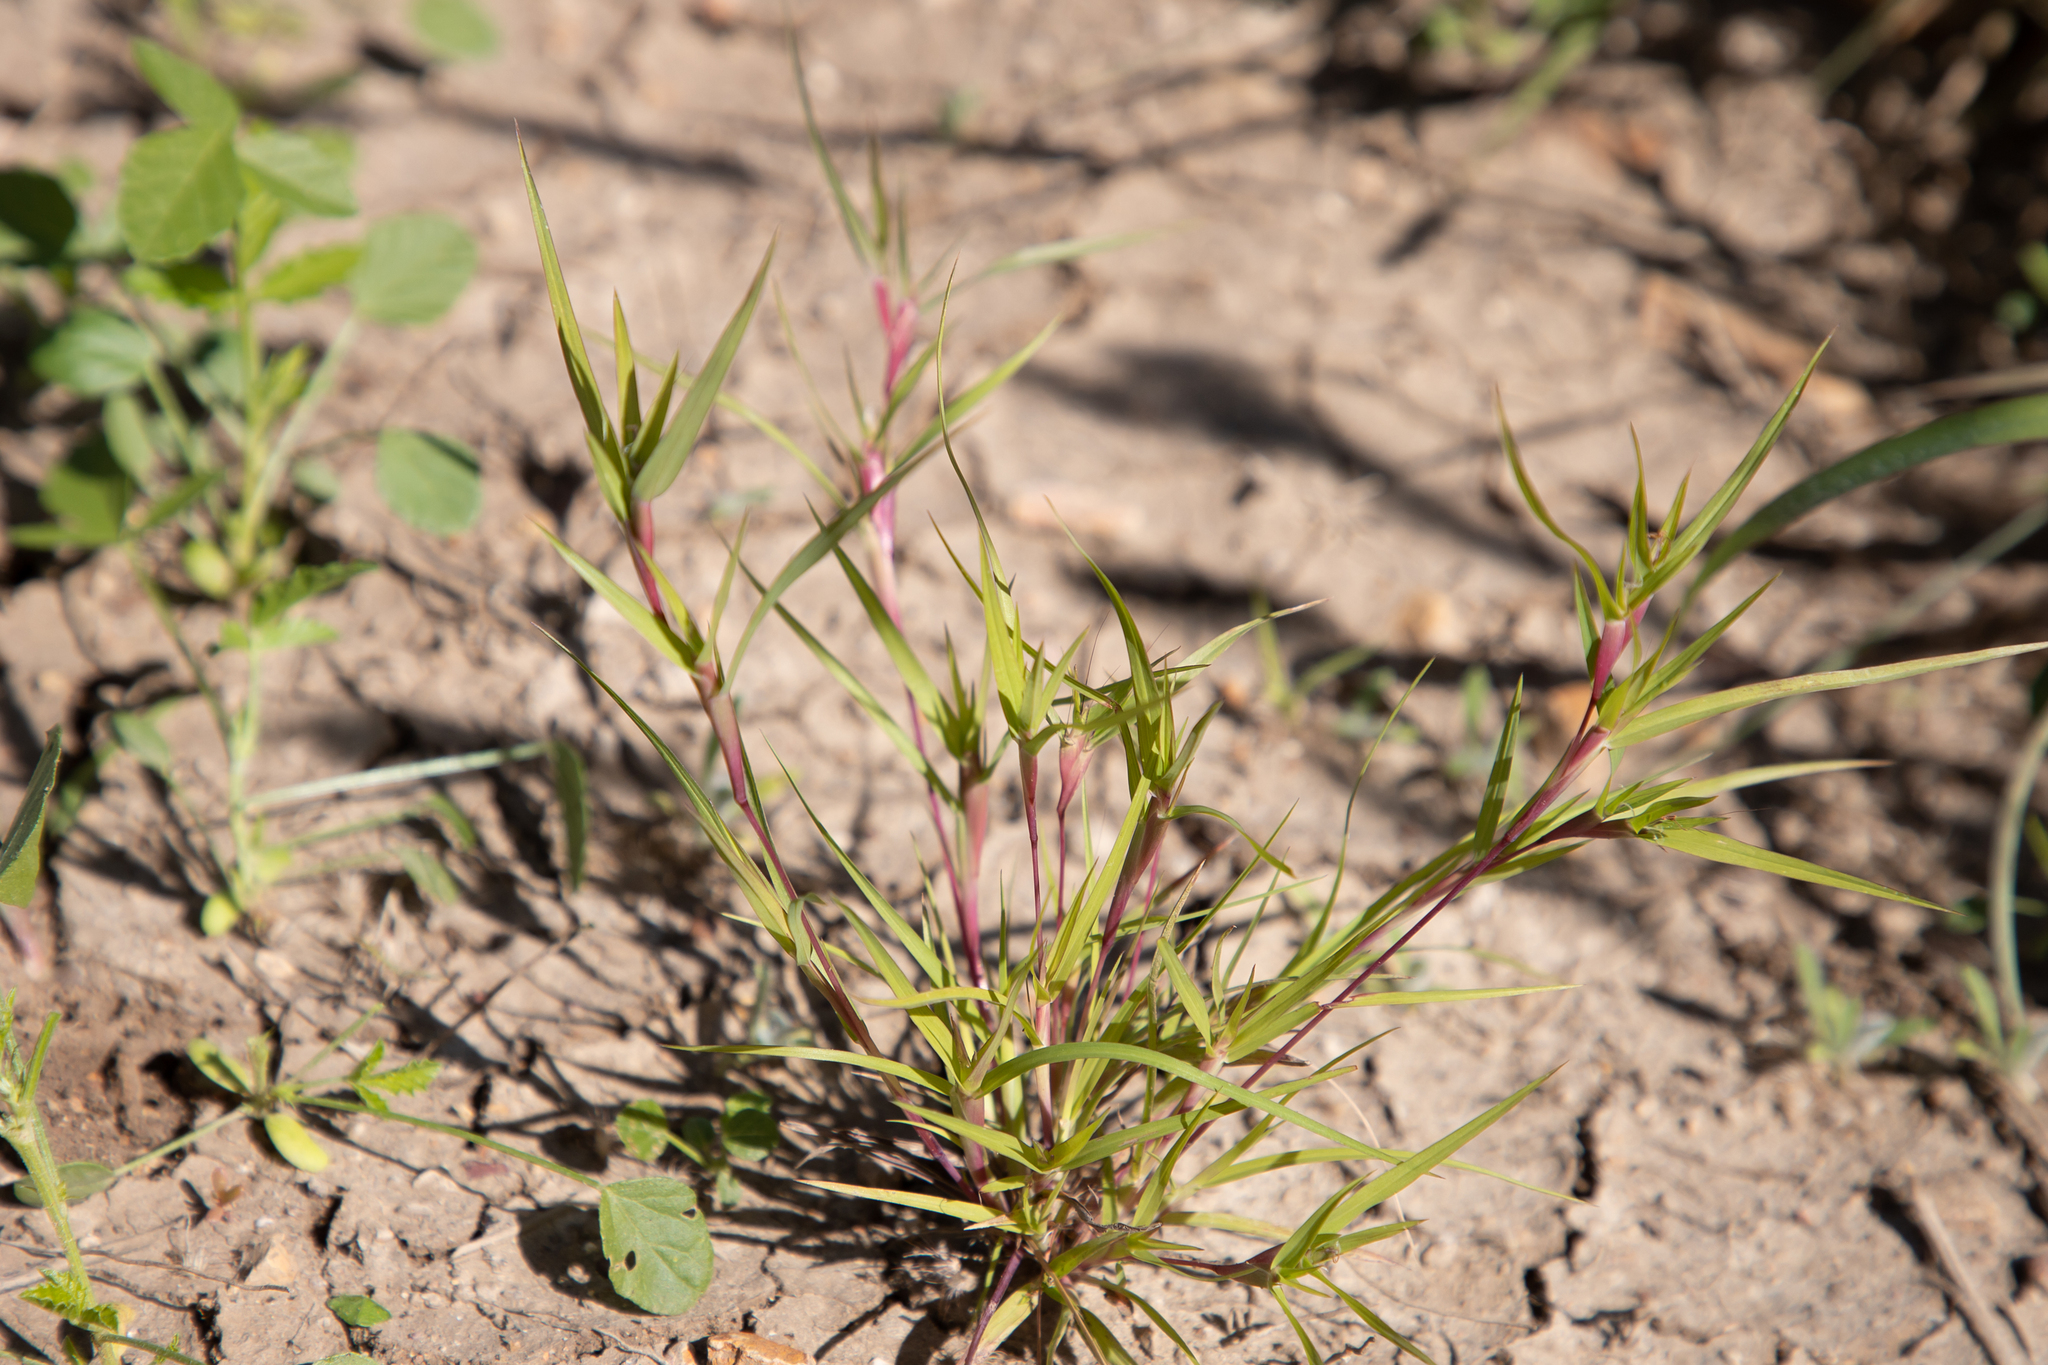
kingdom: Plantae
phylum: Tracheophyta
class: Liliopsida
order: Poales
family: Poaceae
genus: Iseilema
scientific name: Iseilema vaginiflorum
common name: Red flinders grass
